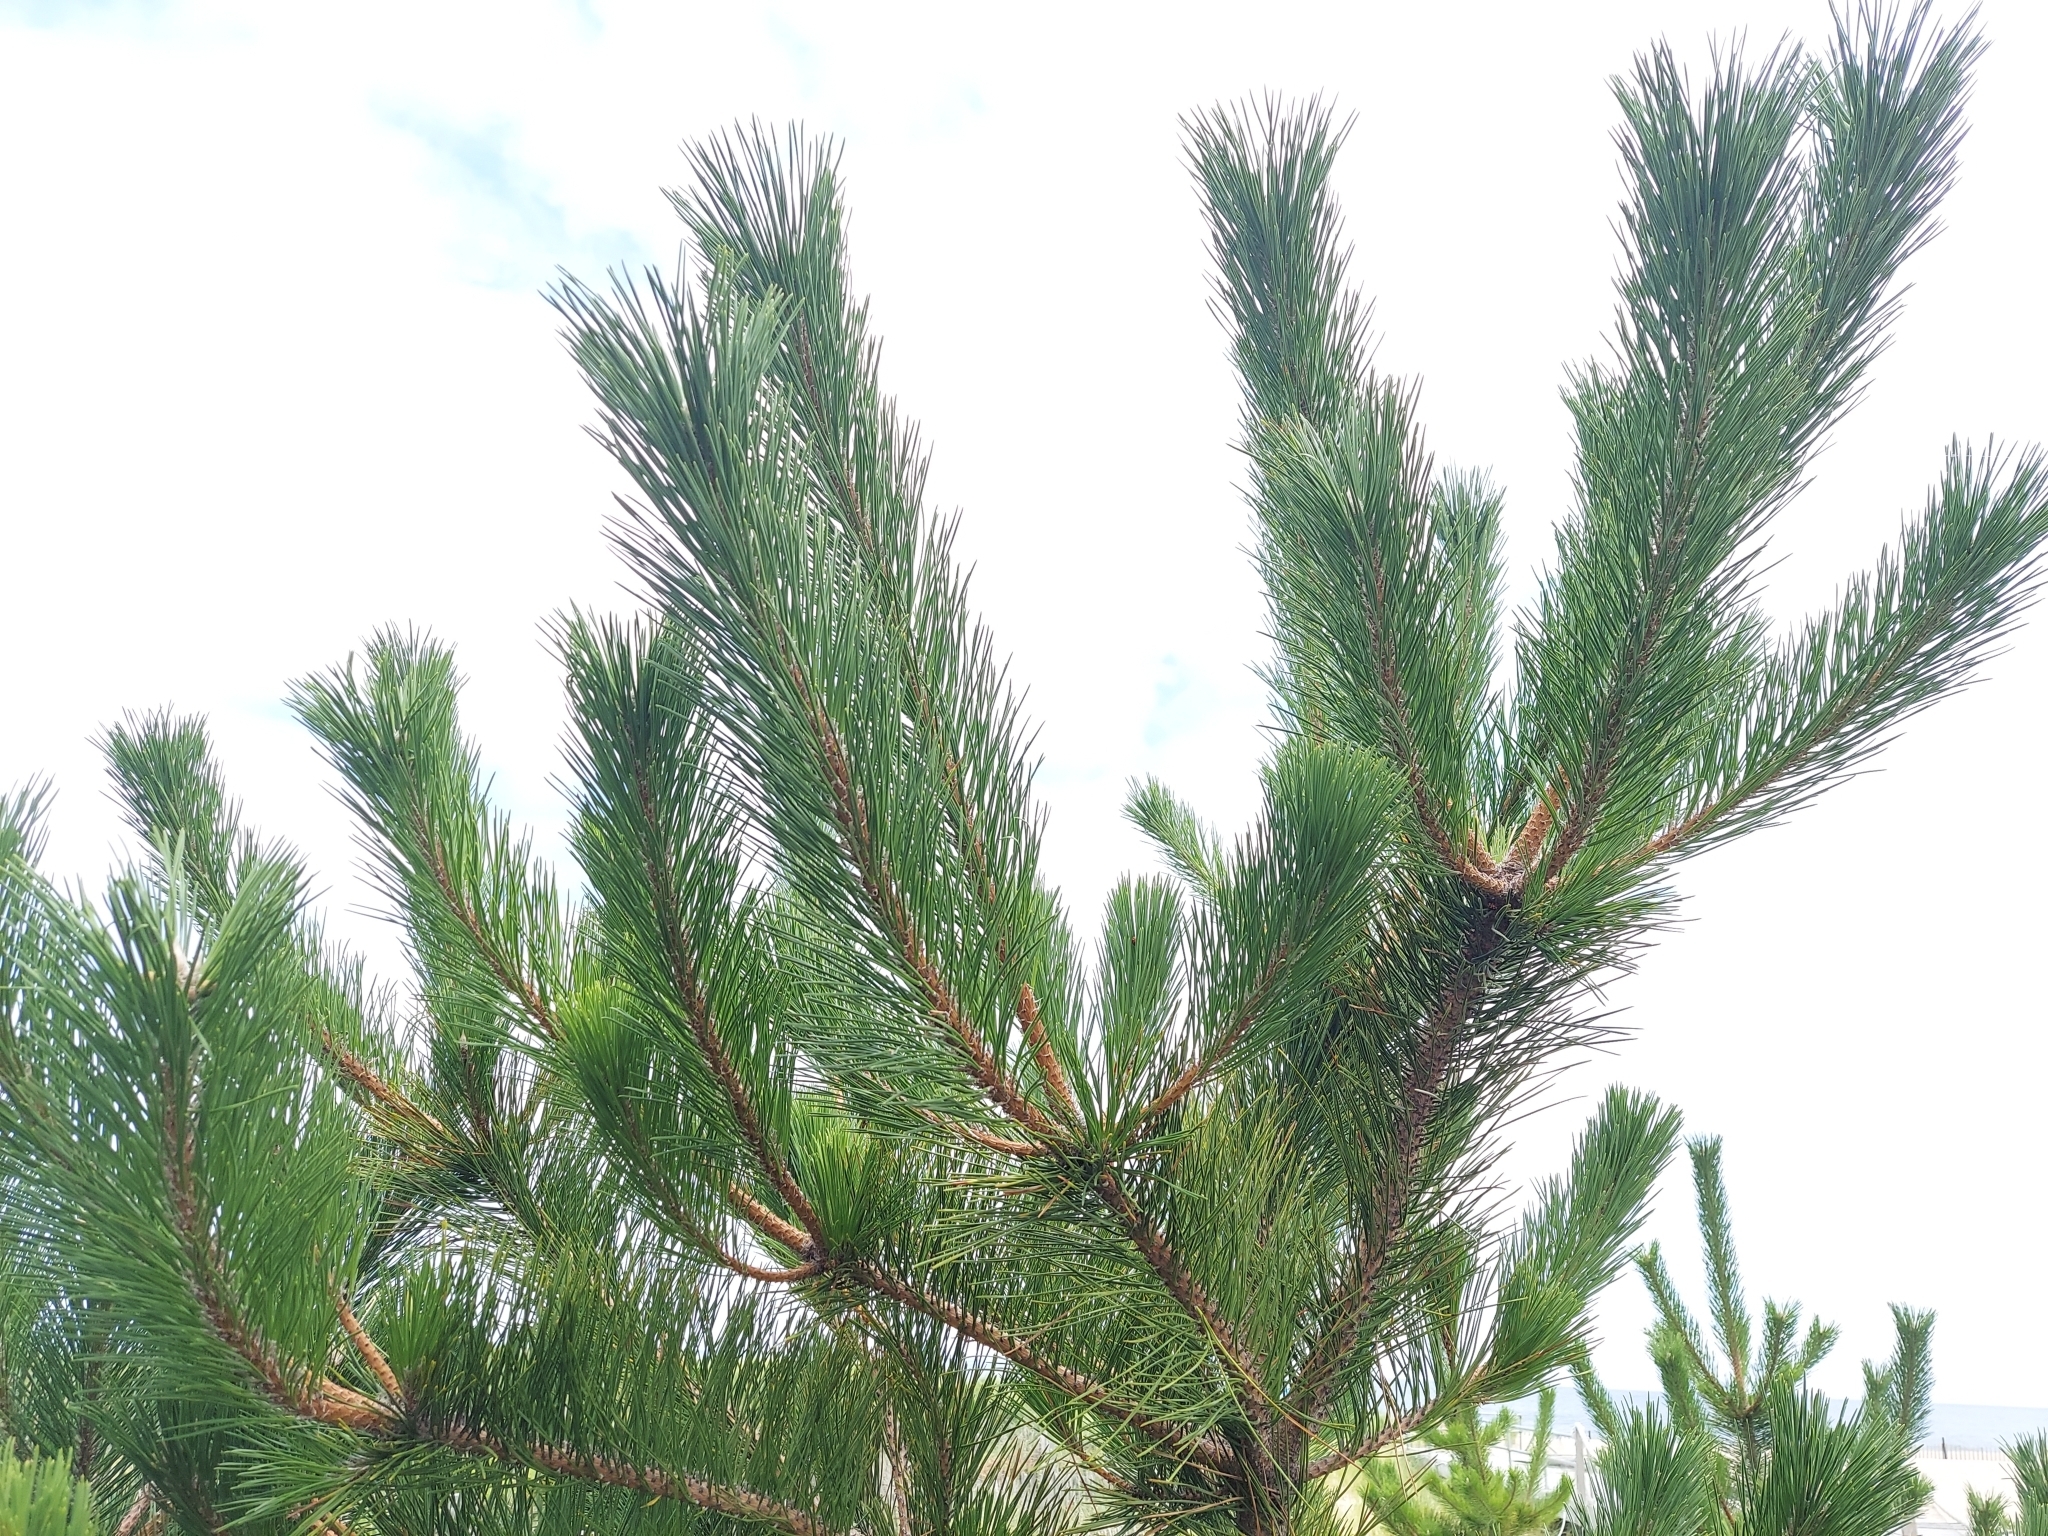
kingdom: Plantae
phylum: Tracheophyta
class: Pinopsida
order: Pinales
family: Pinaceae
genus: Pinus
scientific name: Pinus thunbergii
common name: Japanese black pine
